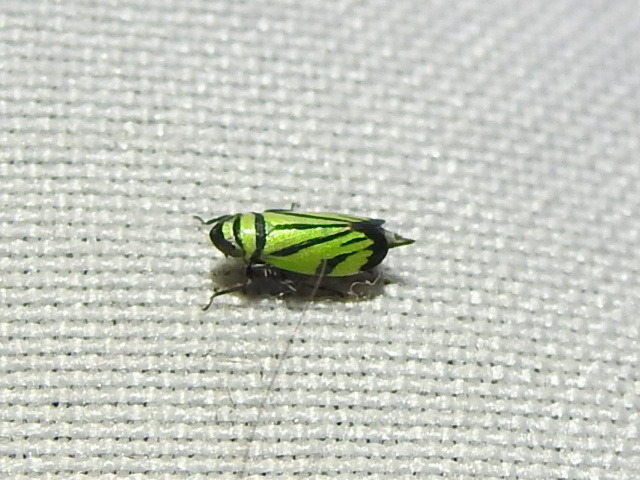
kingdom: Animalia
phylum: Arthropoda
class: Insecta
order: Hemiptera
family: Cicadellidae
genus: Stirellus
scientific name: Stirellus bicolor
